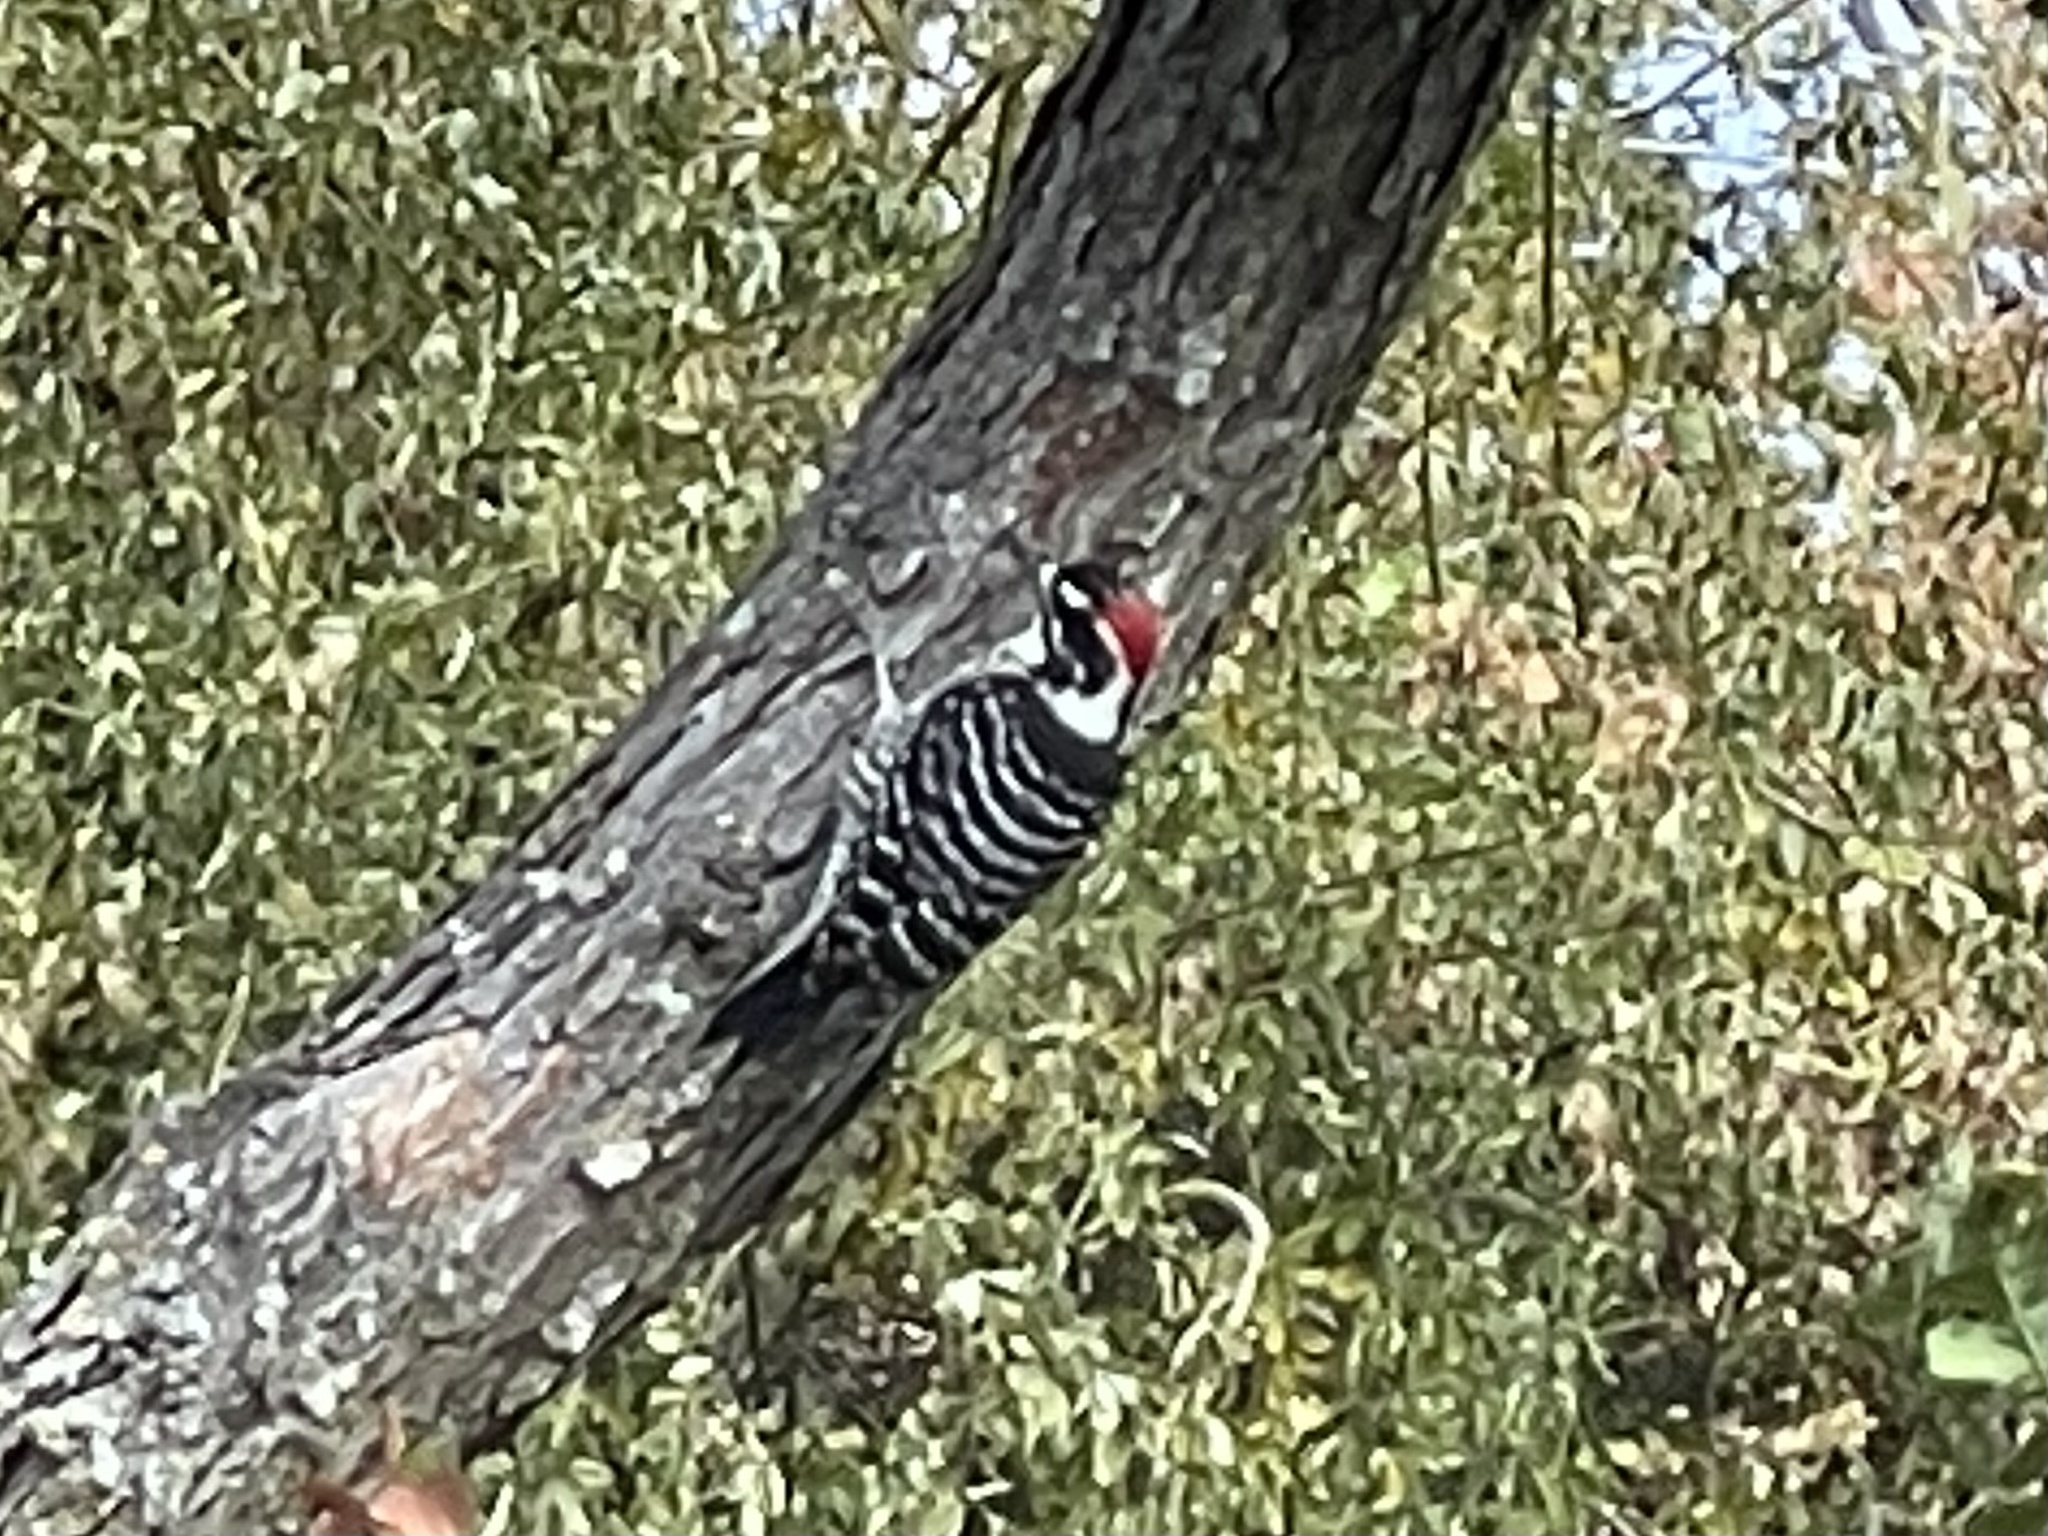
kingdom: Animalia
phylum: Chordata
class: Aves
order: Piciformes
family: Picidae
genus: Dryobates
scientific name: Dryobates nuttallii
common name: Nuttall's woodpecker
